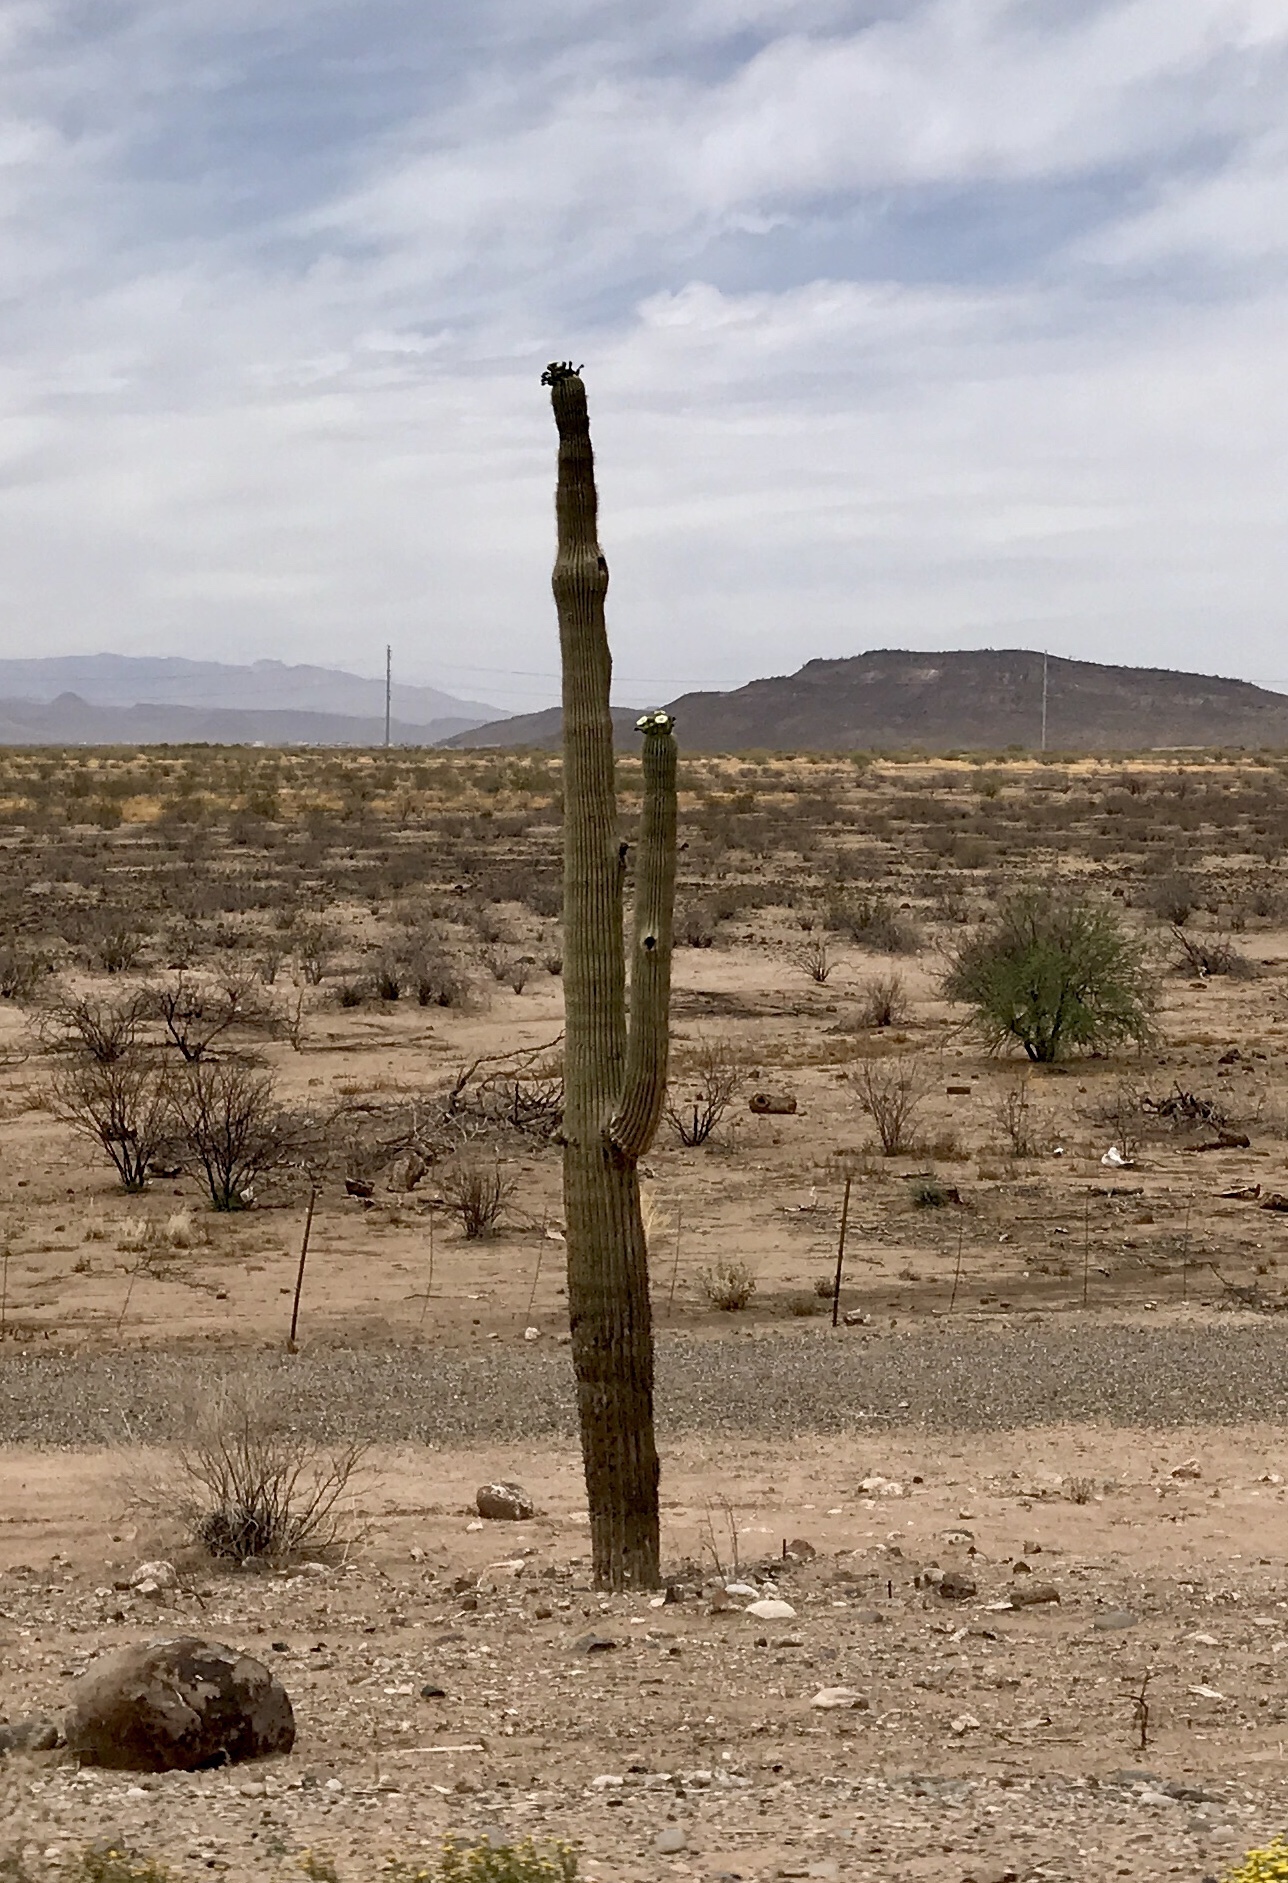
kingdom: Plantae
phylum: Tracheophyta
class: Magnoliopsida
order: Caryophyllales
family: Cactaceae
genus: Carnegiea
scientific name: Carnegiea gigantea
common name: Saguaro
